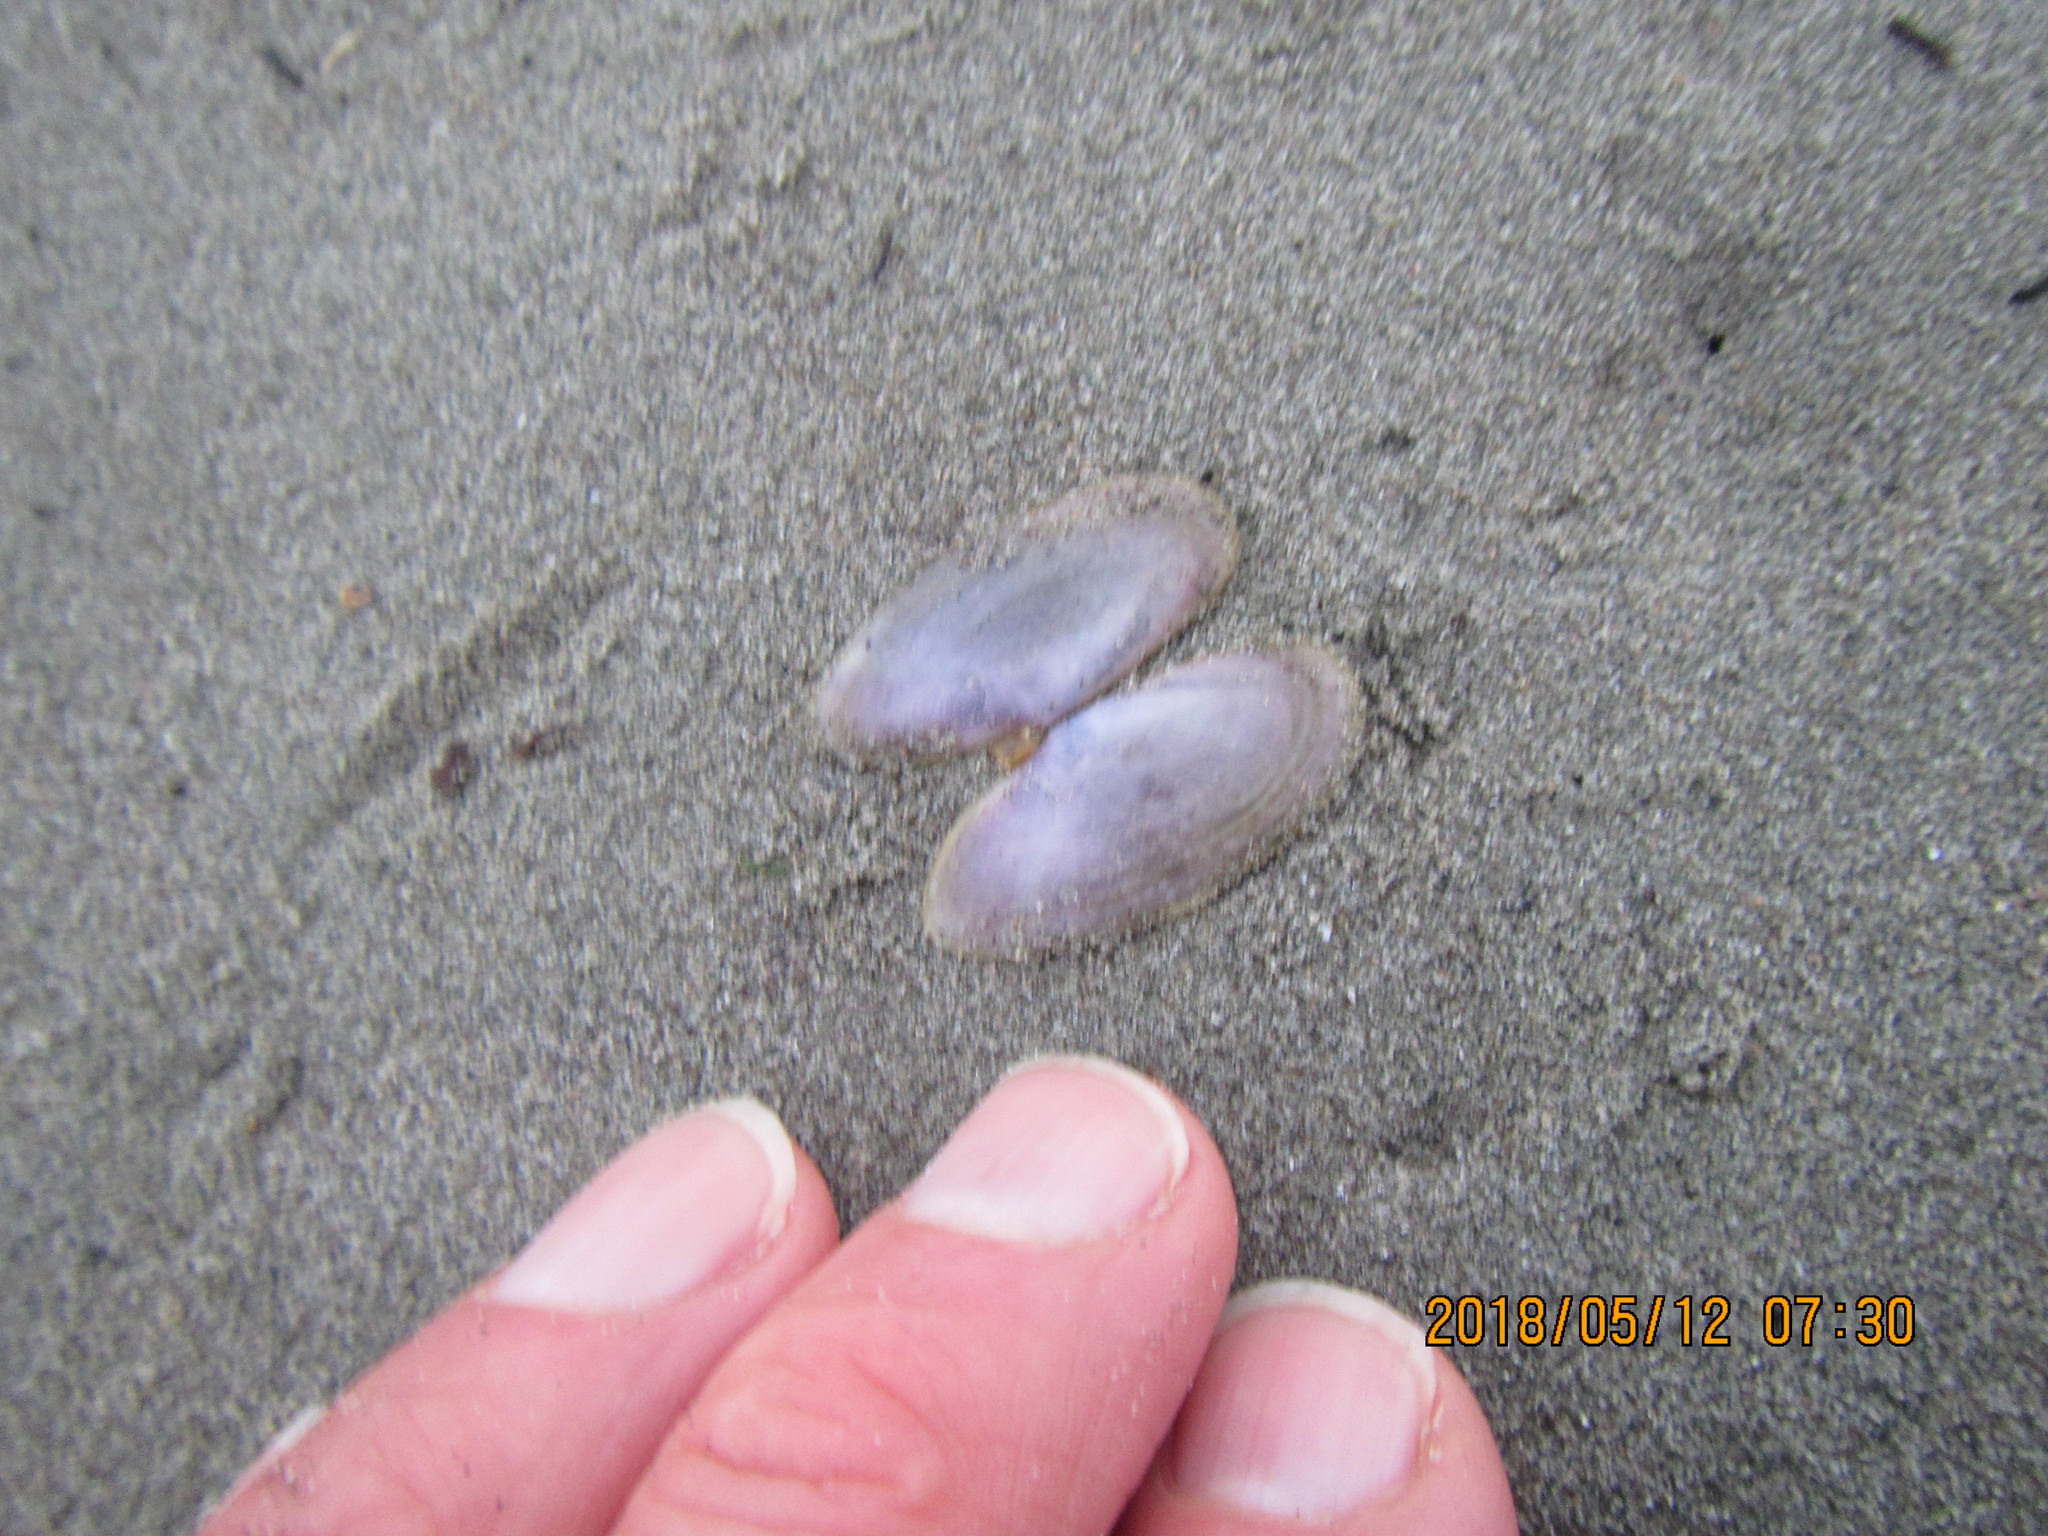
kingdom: Animalia
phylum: Mollusca
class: Bivalvia
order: Cardiida
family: Psammobiidae
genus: Hiatula
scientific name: Hiatula nitida
